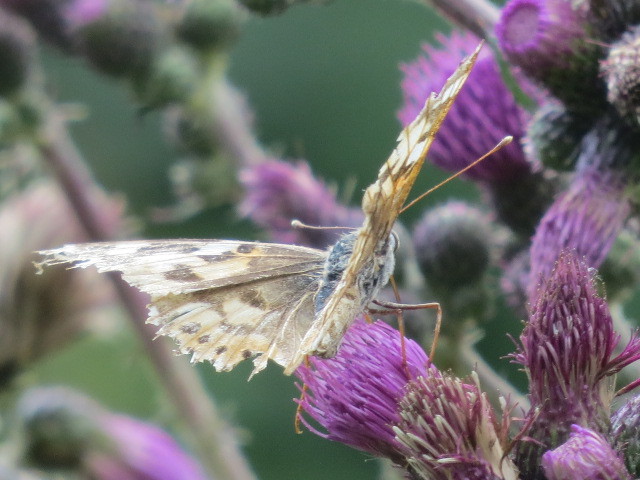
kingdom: Animalia
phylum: Arthropoda
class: Insecta
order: Lepidoptera
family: Nymphalidae
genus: Vanessa
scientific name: Vanessa cardui
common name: Painted lady
